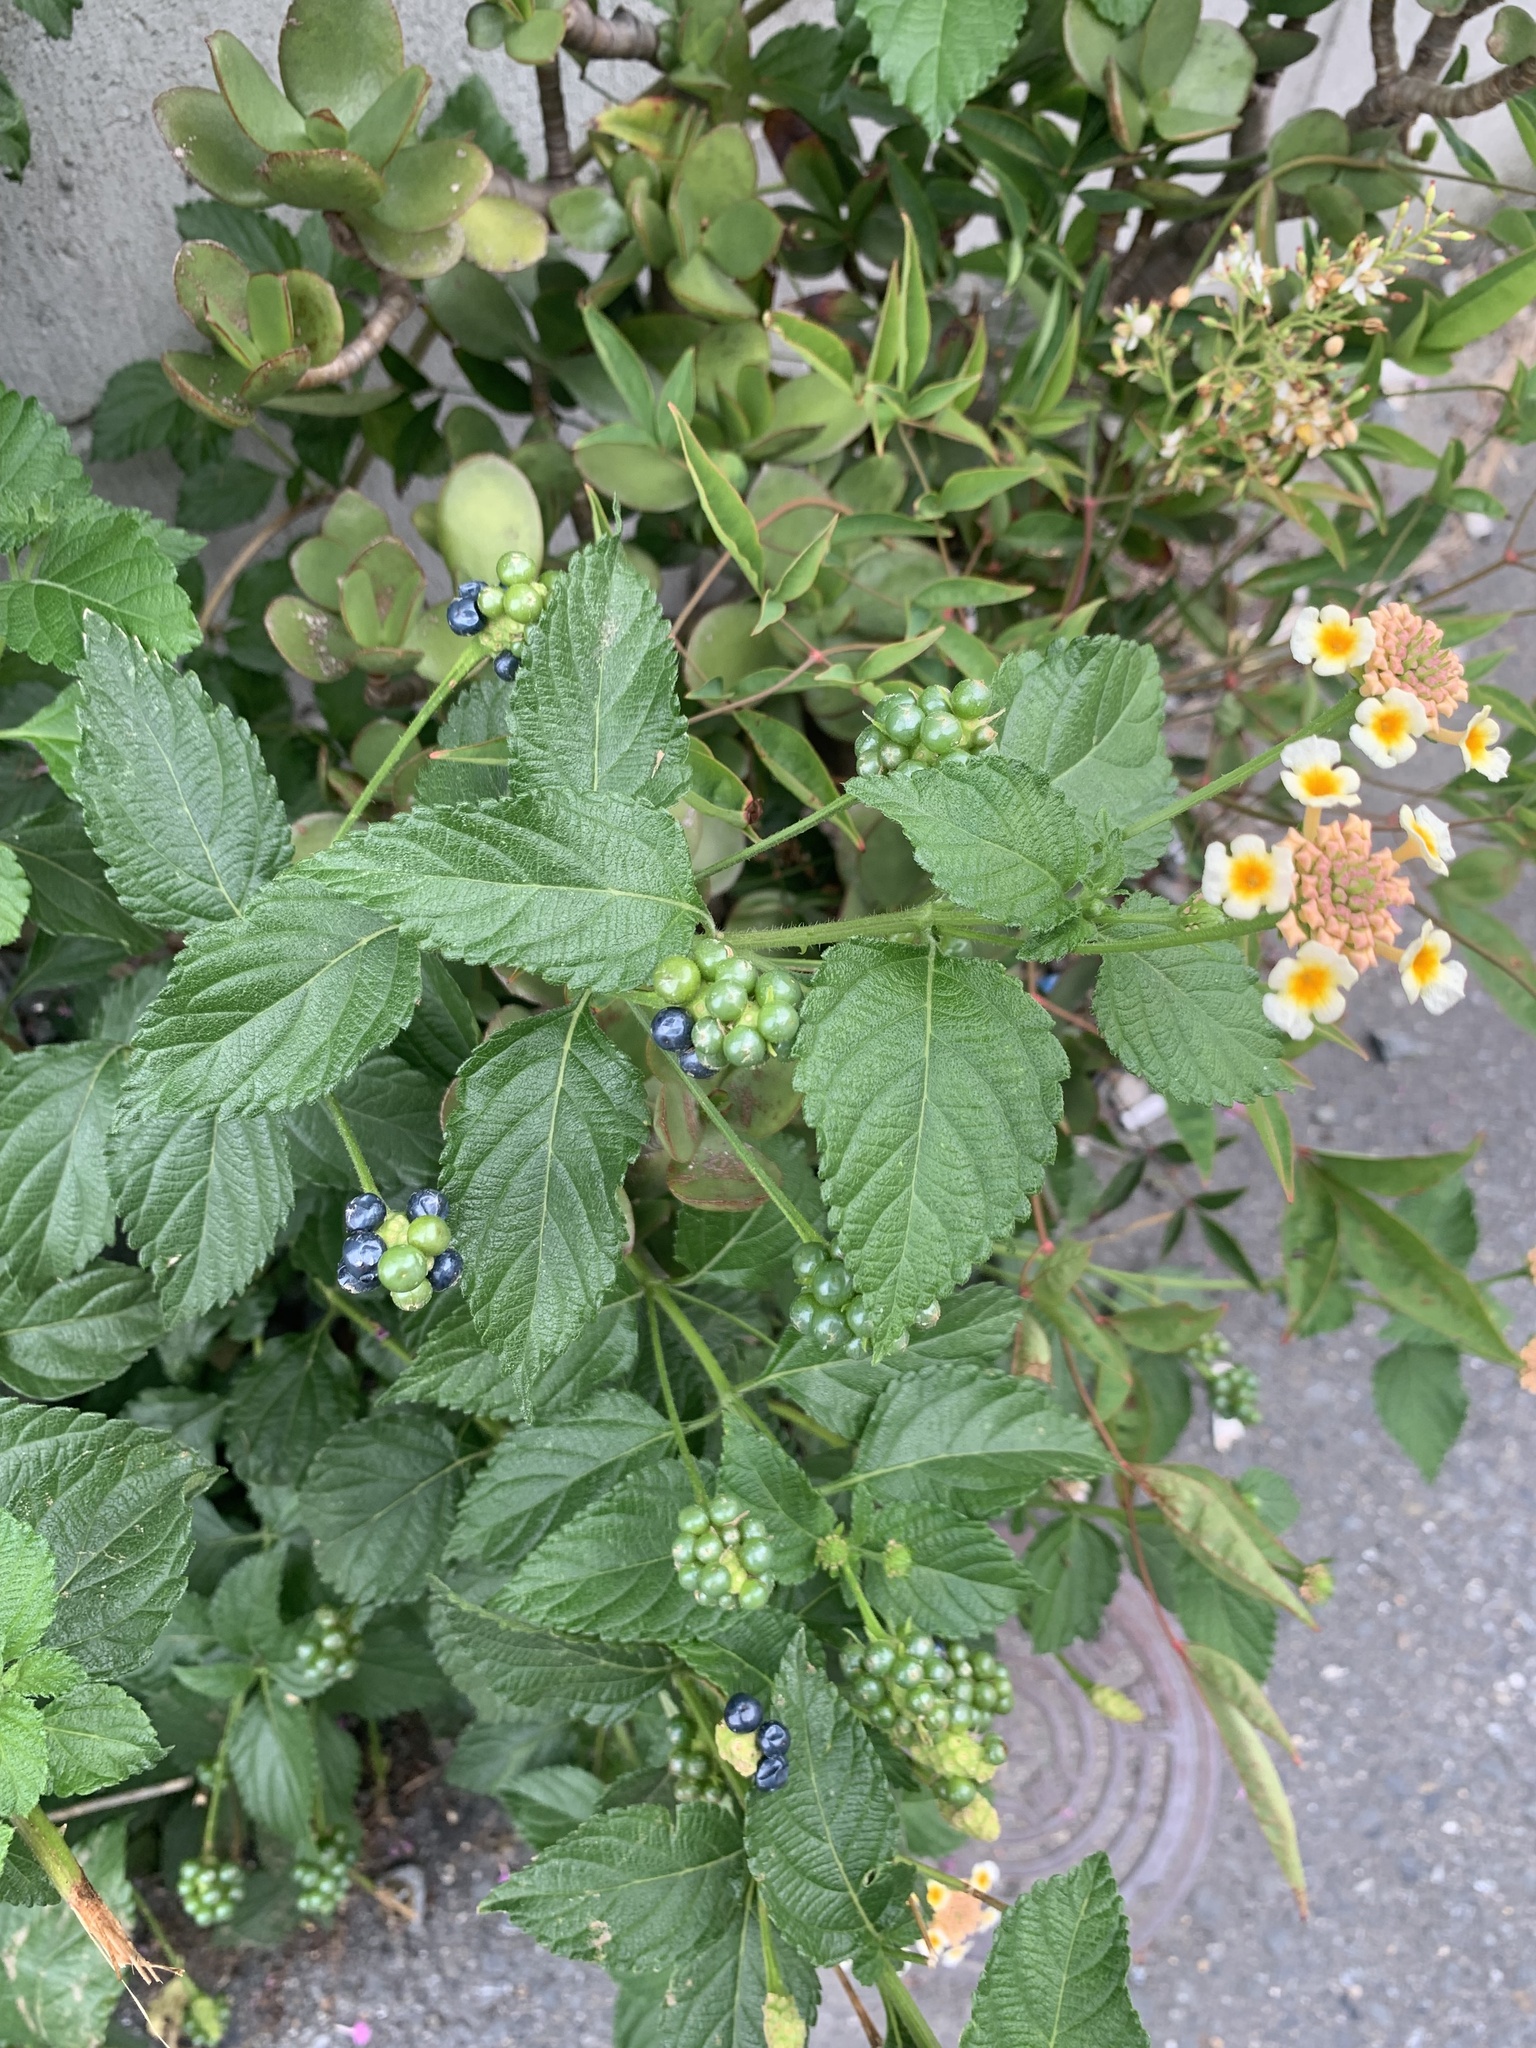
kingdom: Plantae
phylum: Tracheophyta
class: Magnoliopsida
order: Lamiales
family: Verbenaceae
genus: Lantana
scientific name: Lantana camara
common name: Lantana
